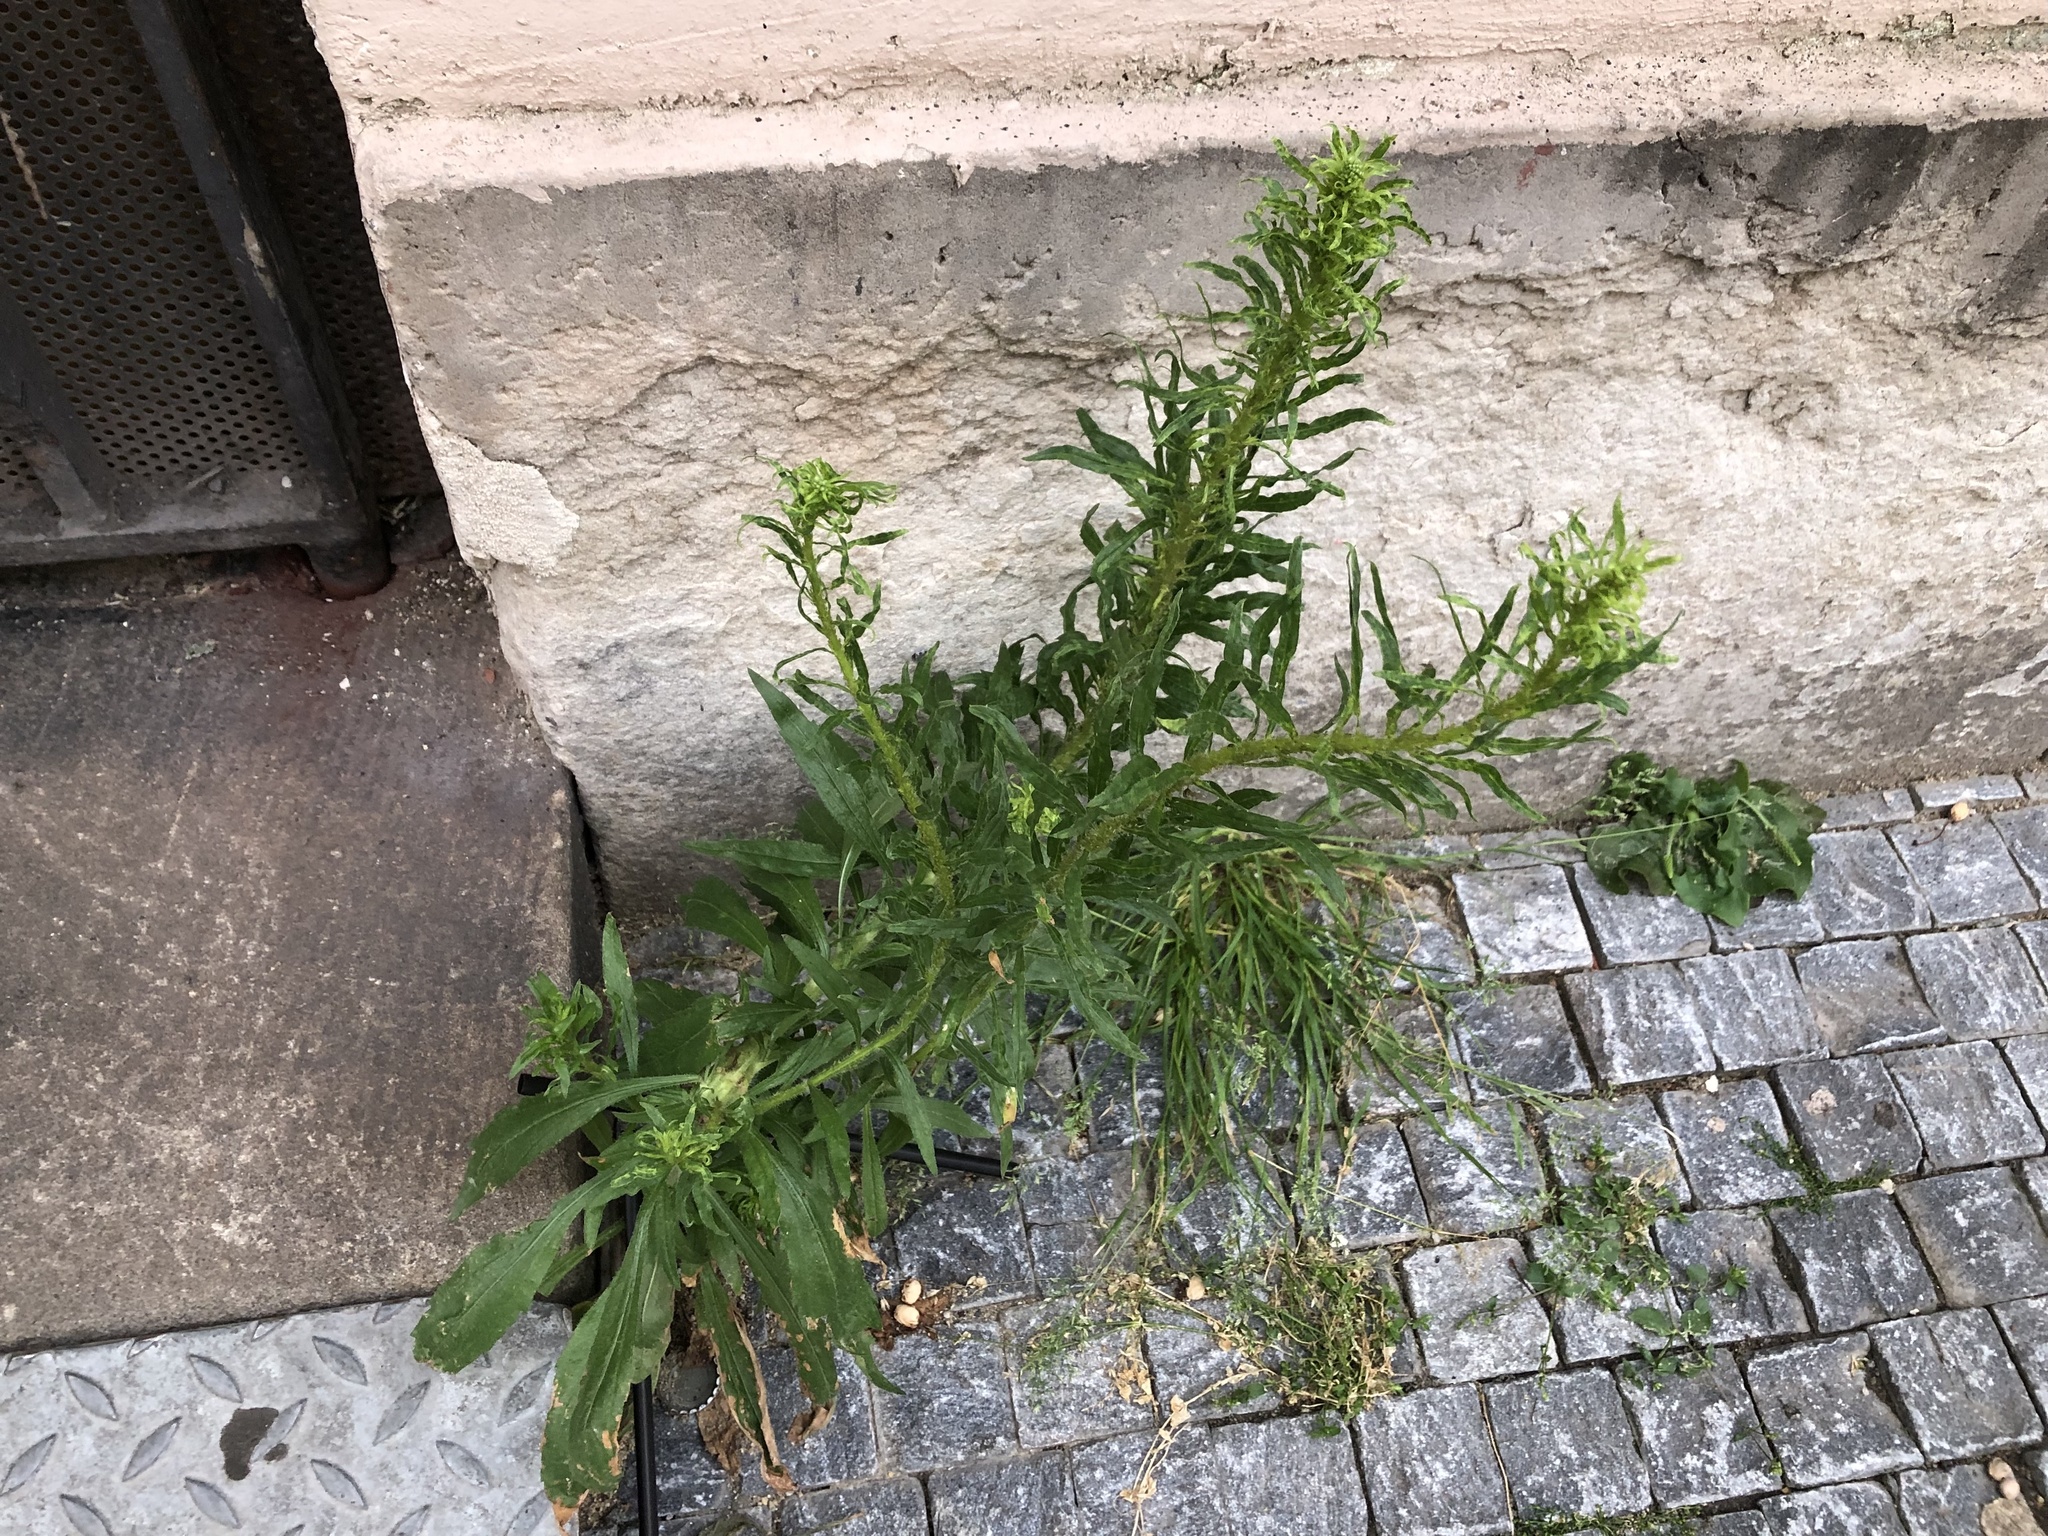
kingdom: Plantae
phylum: Tracheophyta
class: Magnoliopsida
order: Asterales
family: Asteraceae
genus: Erigeron
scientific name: Erigeron canadensis
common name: Canadian fleabane
